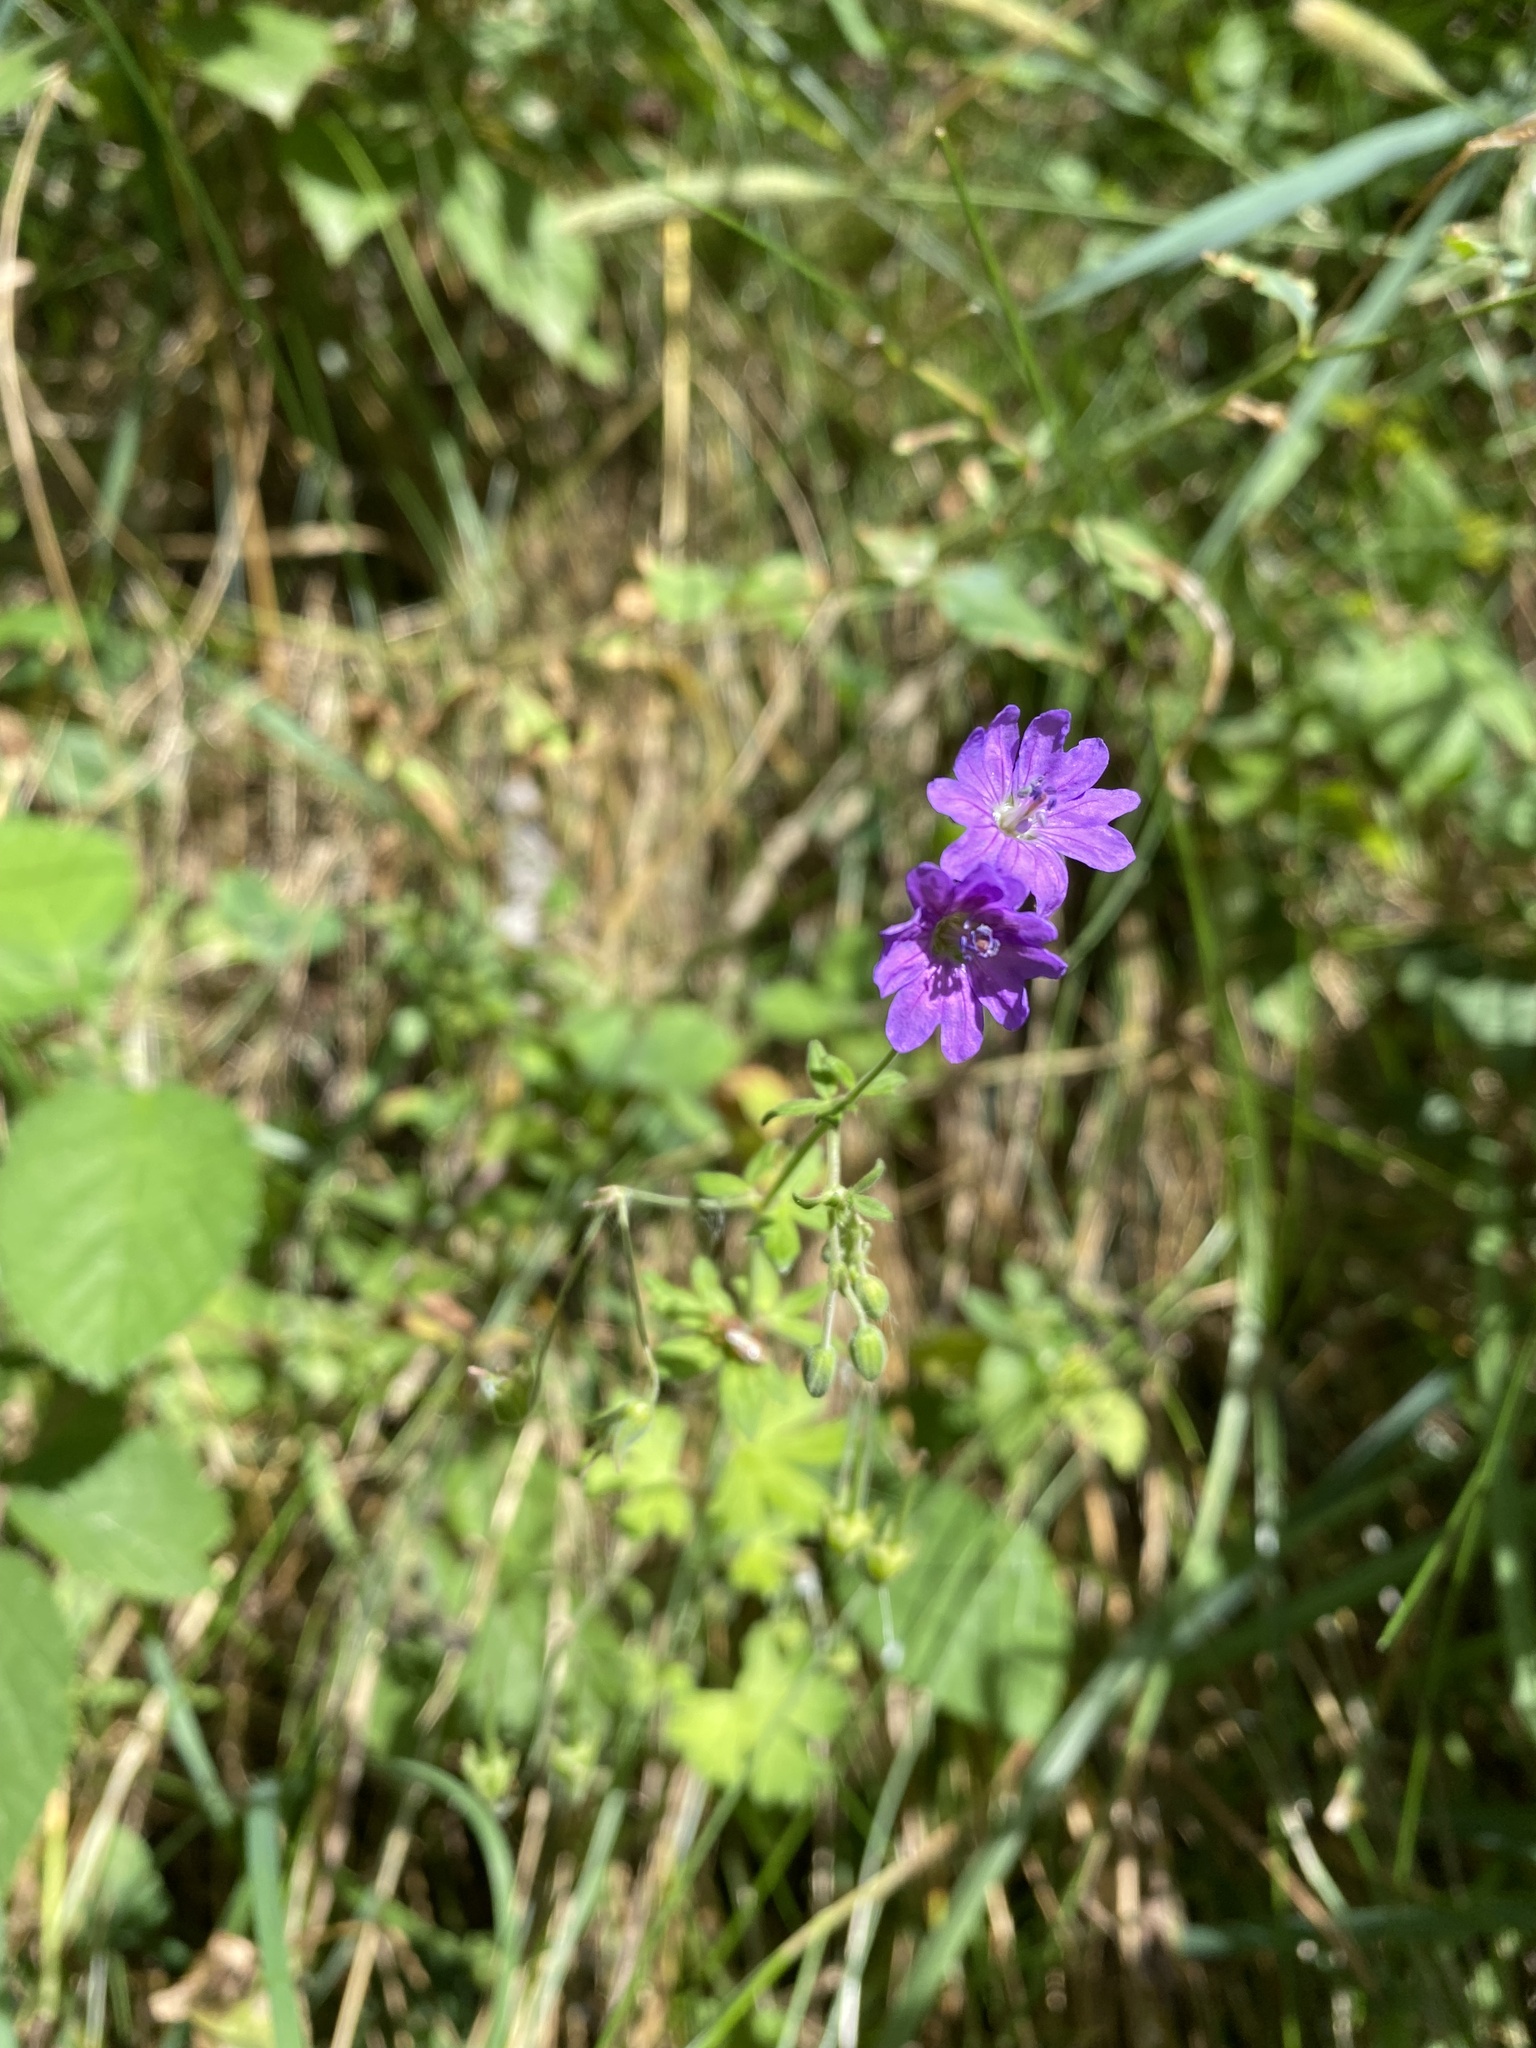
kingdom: Plantae
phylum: Tracheophyta
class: Magnoliopsida
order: Geraniales
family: Geraniaceae
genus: Geranium
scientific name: Geranium pyrenaicum
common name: Hedgerow crane's-bill
